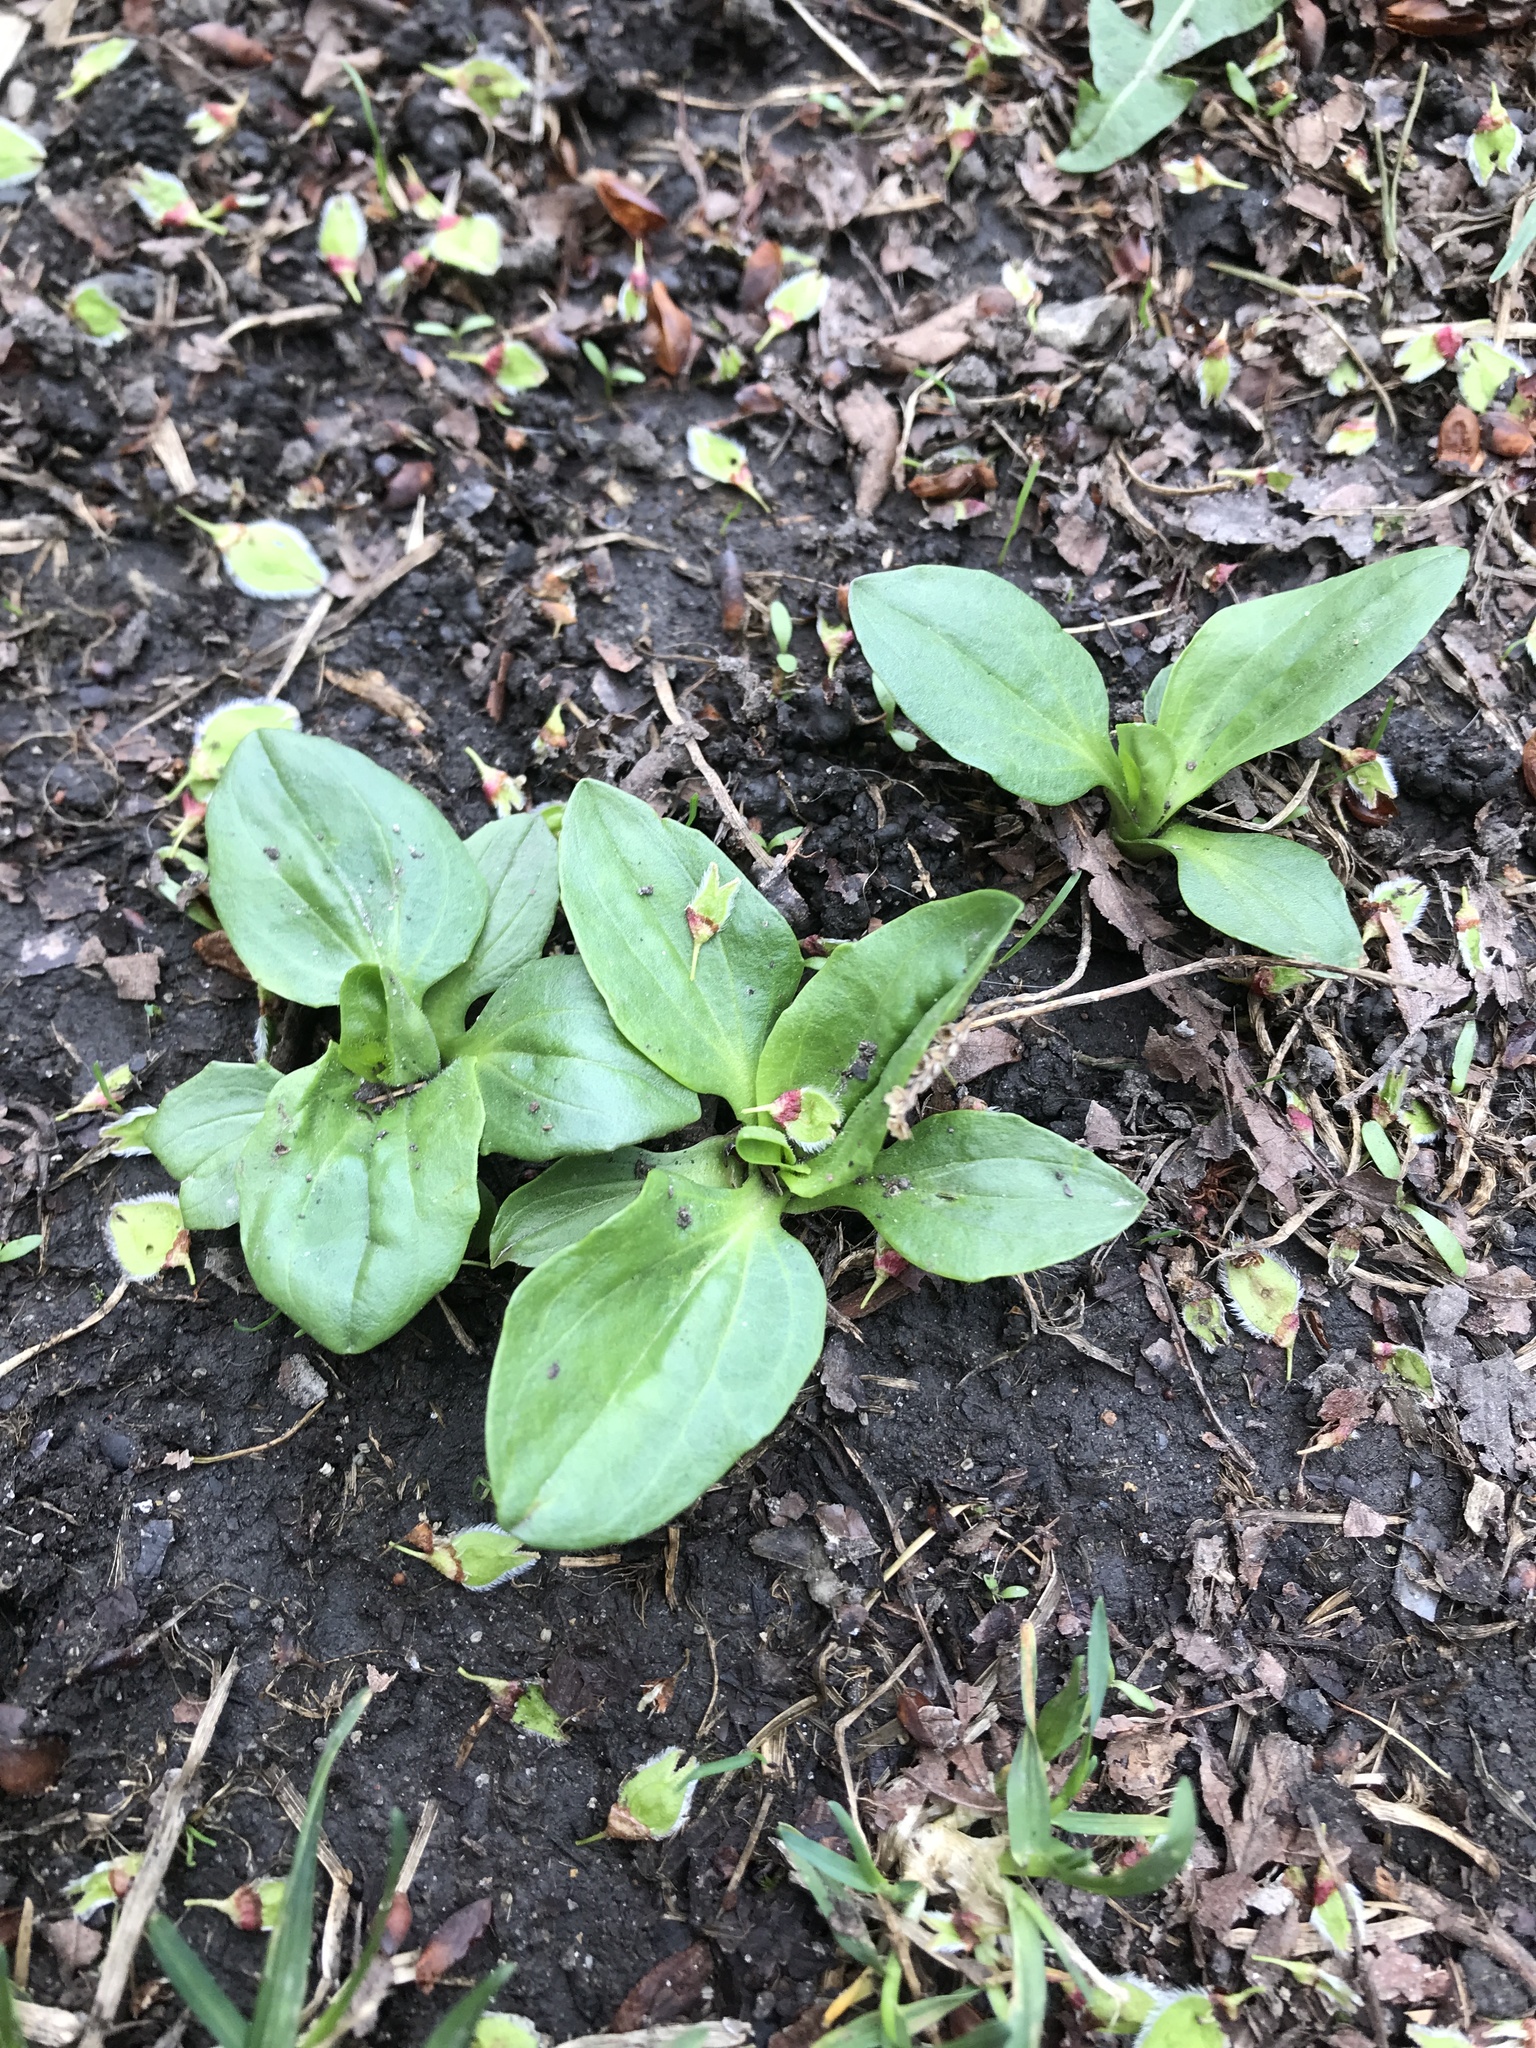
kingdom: Plantae
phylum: Tracheophyta
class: Magnoliopsida
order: Lamiales
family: Plantaginaceae
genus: Plantago
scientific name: Plantago major
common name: Common plantain
